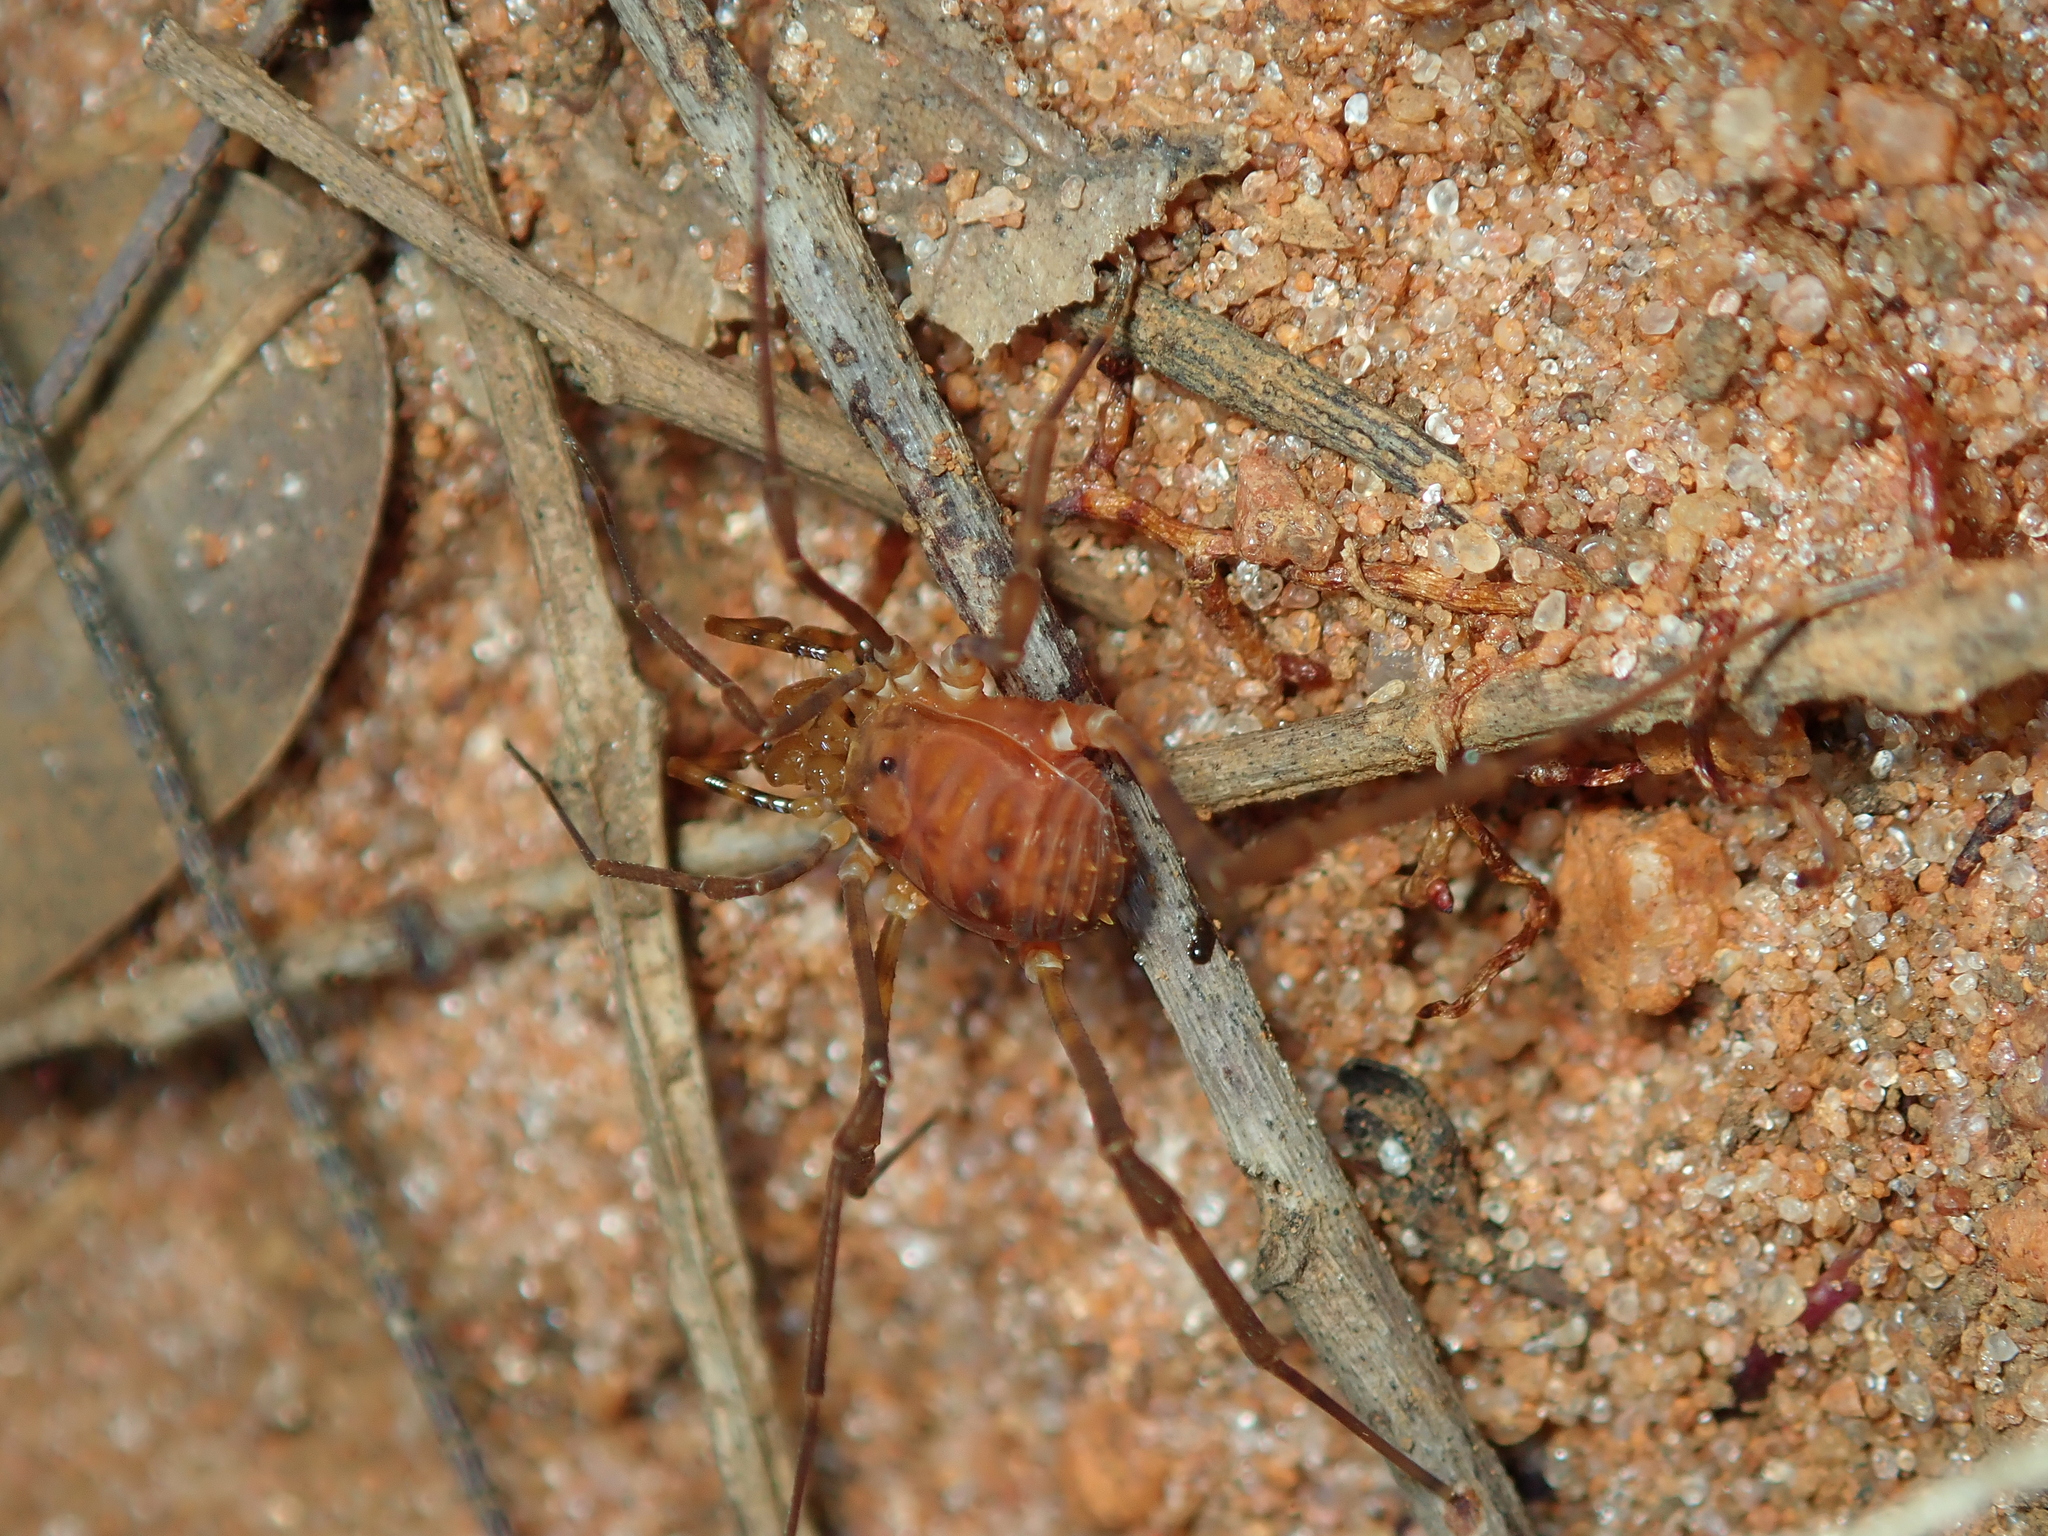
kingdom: Animalia
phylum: Arthropoda
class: Arachnida
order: Opiliones
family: Stygnidae
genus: Stygnus
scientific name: Stygnus luteus
